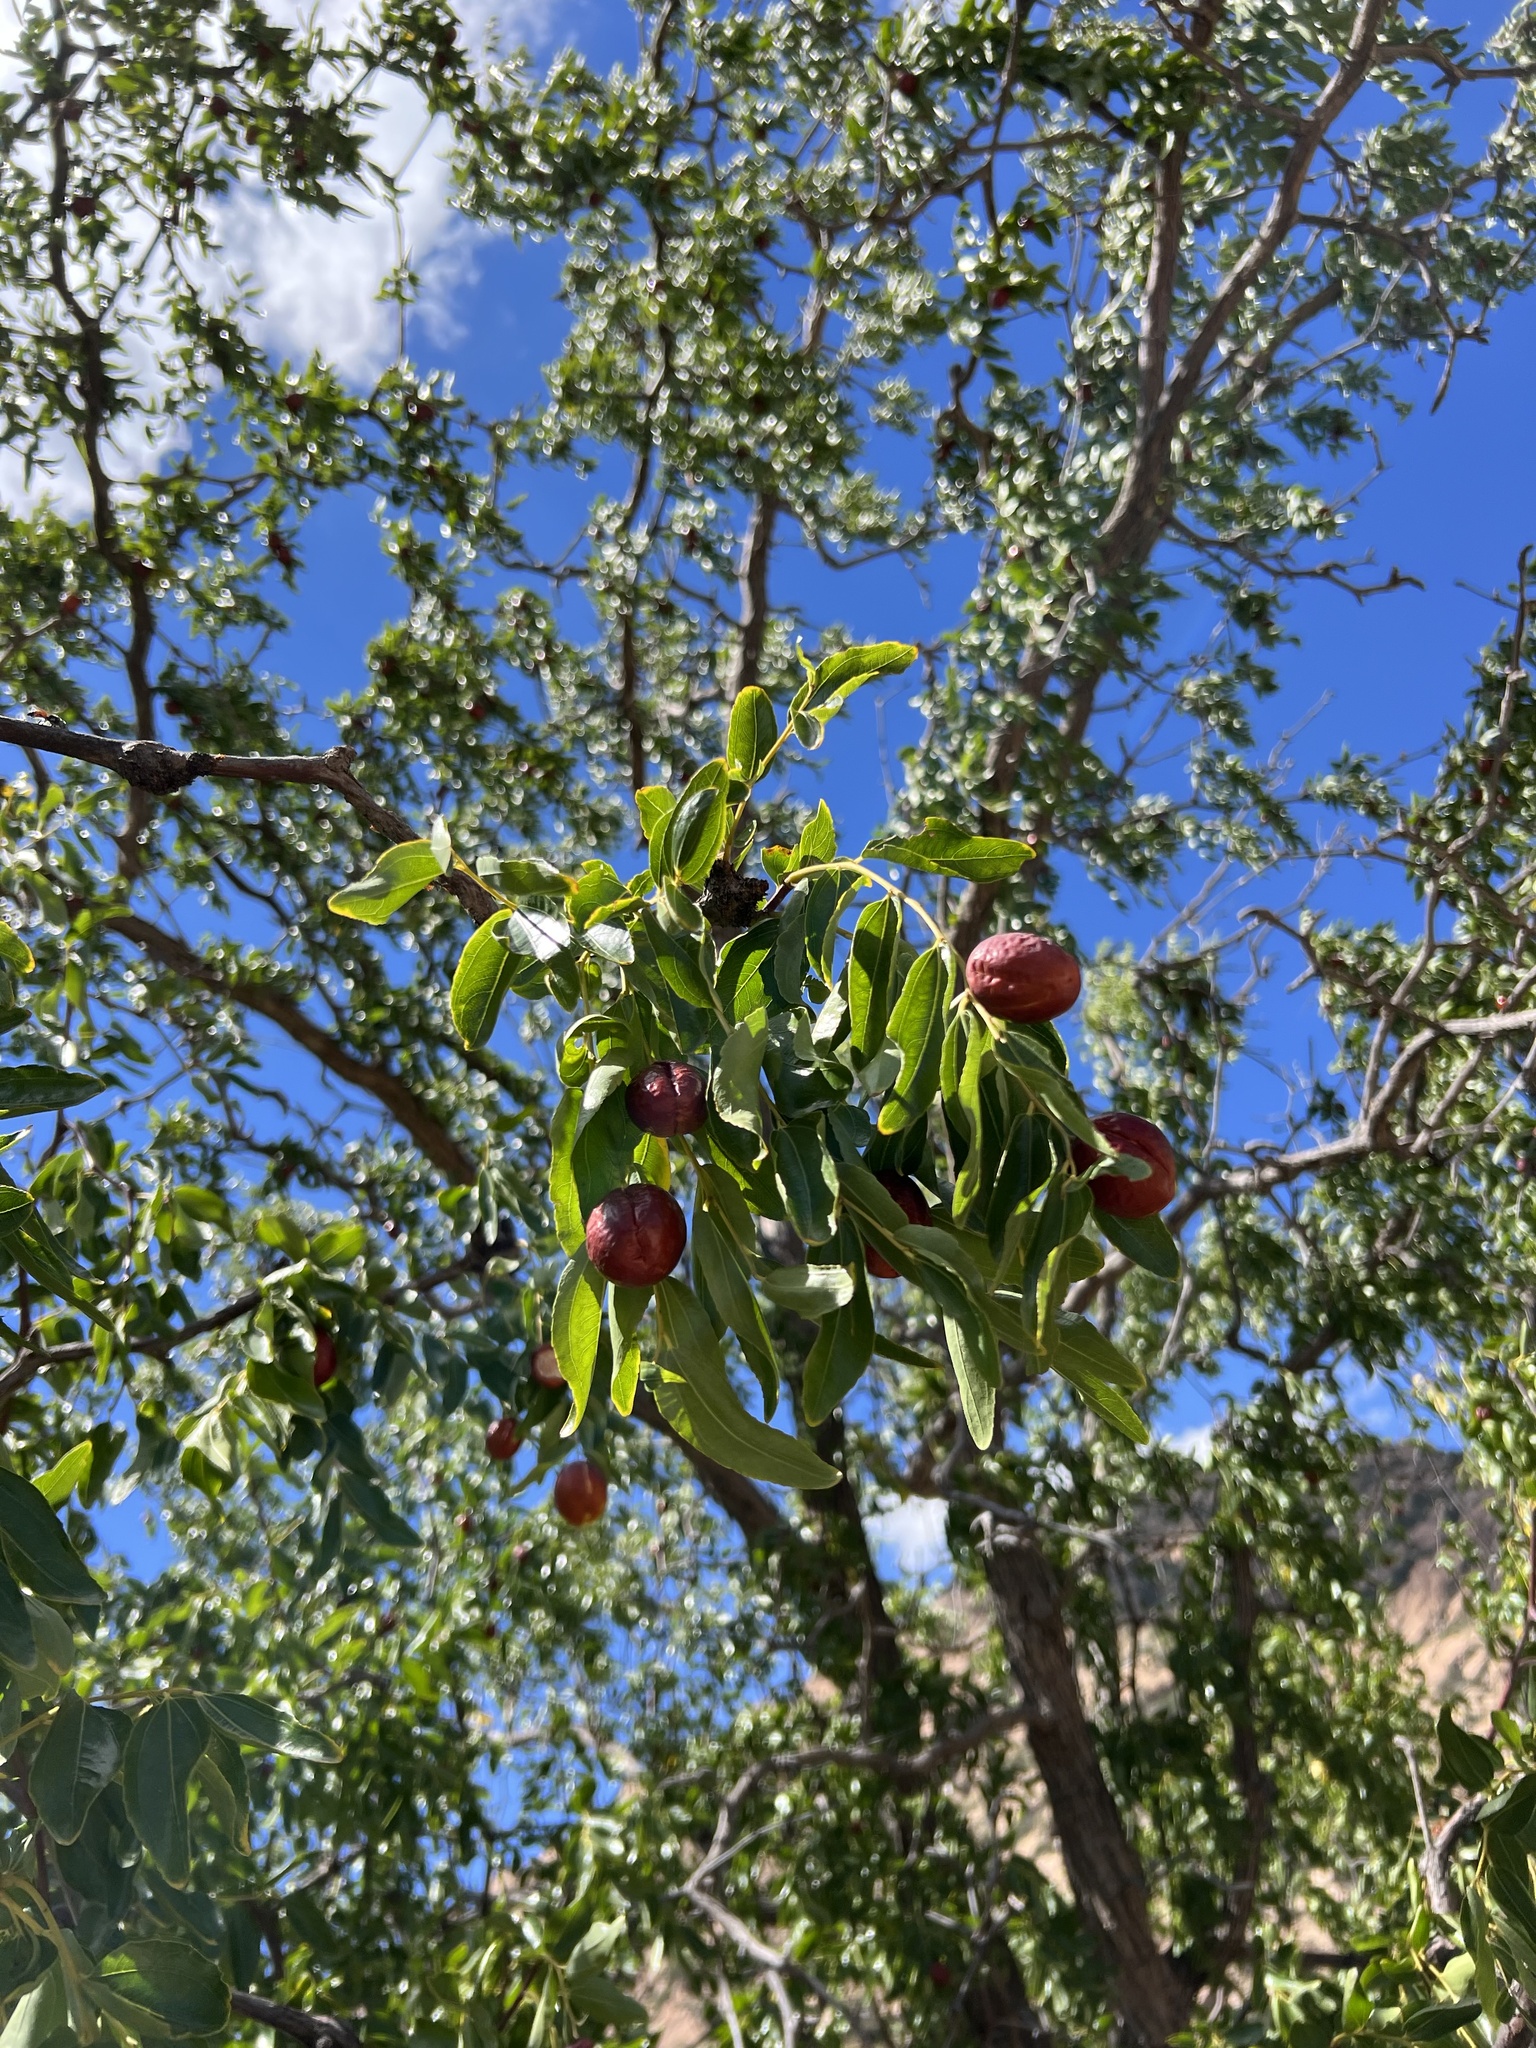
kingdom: Plantae
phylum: Tracheophyta
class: Magnoliopsida
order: Rosales
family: Rhamnaceae
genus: Ziziphus
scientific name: Ziziphus jujuba
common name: Jujube red date
